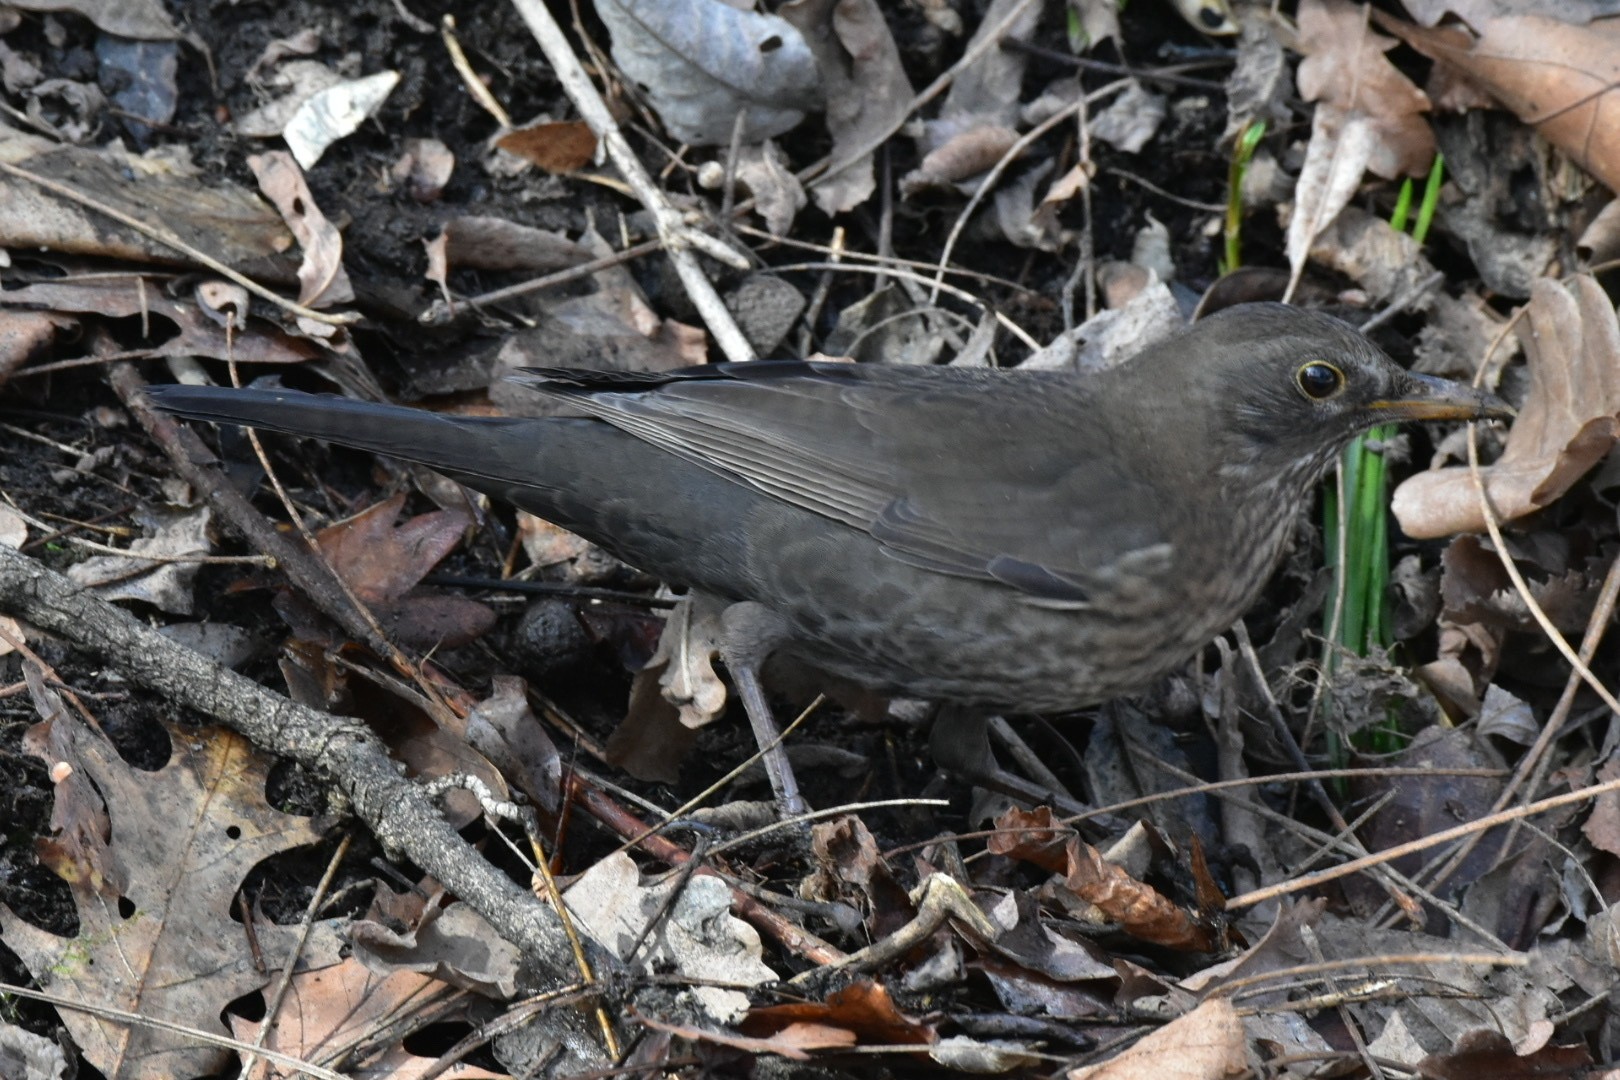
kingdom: Animalia
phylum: Chordata
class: Aves
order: Passeriformes
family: Turdidae
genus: Turdus
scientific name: Turdus merula
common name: Common blackbird
